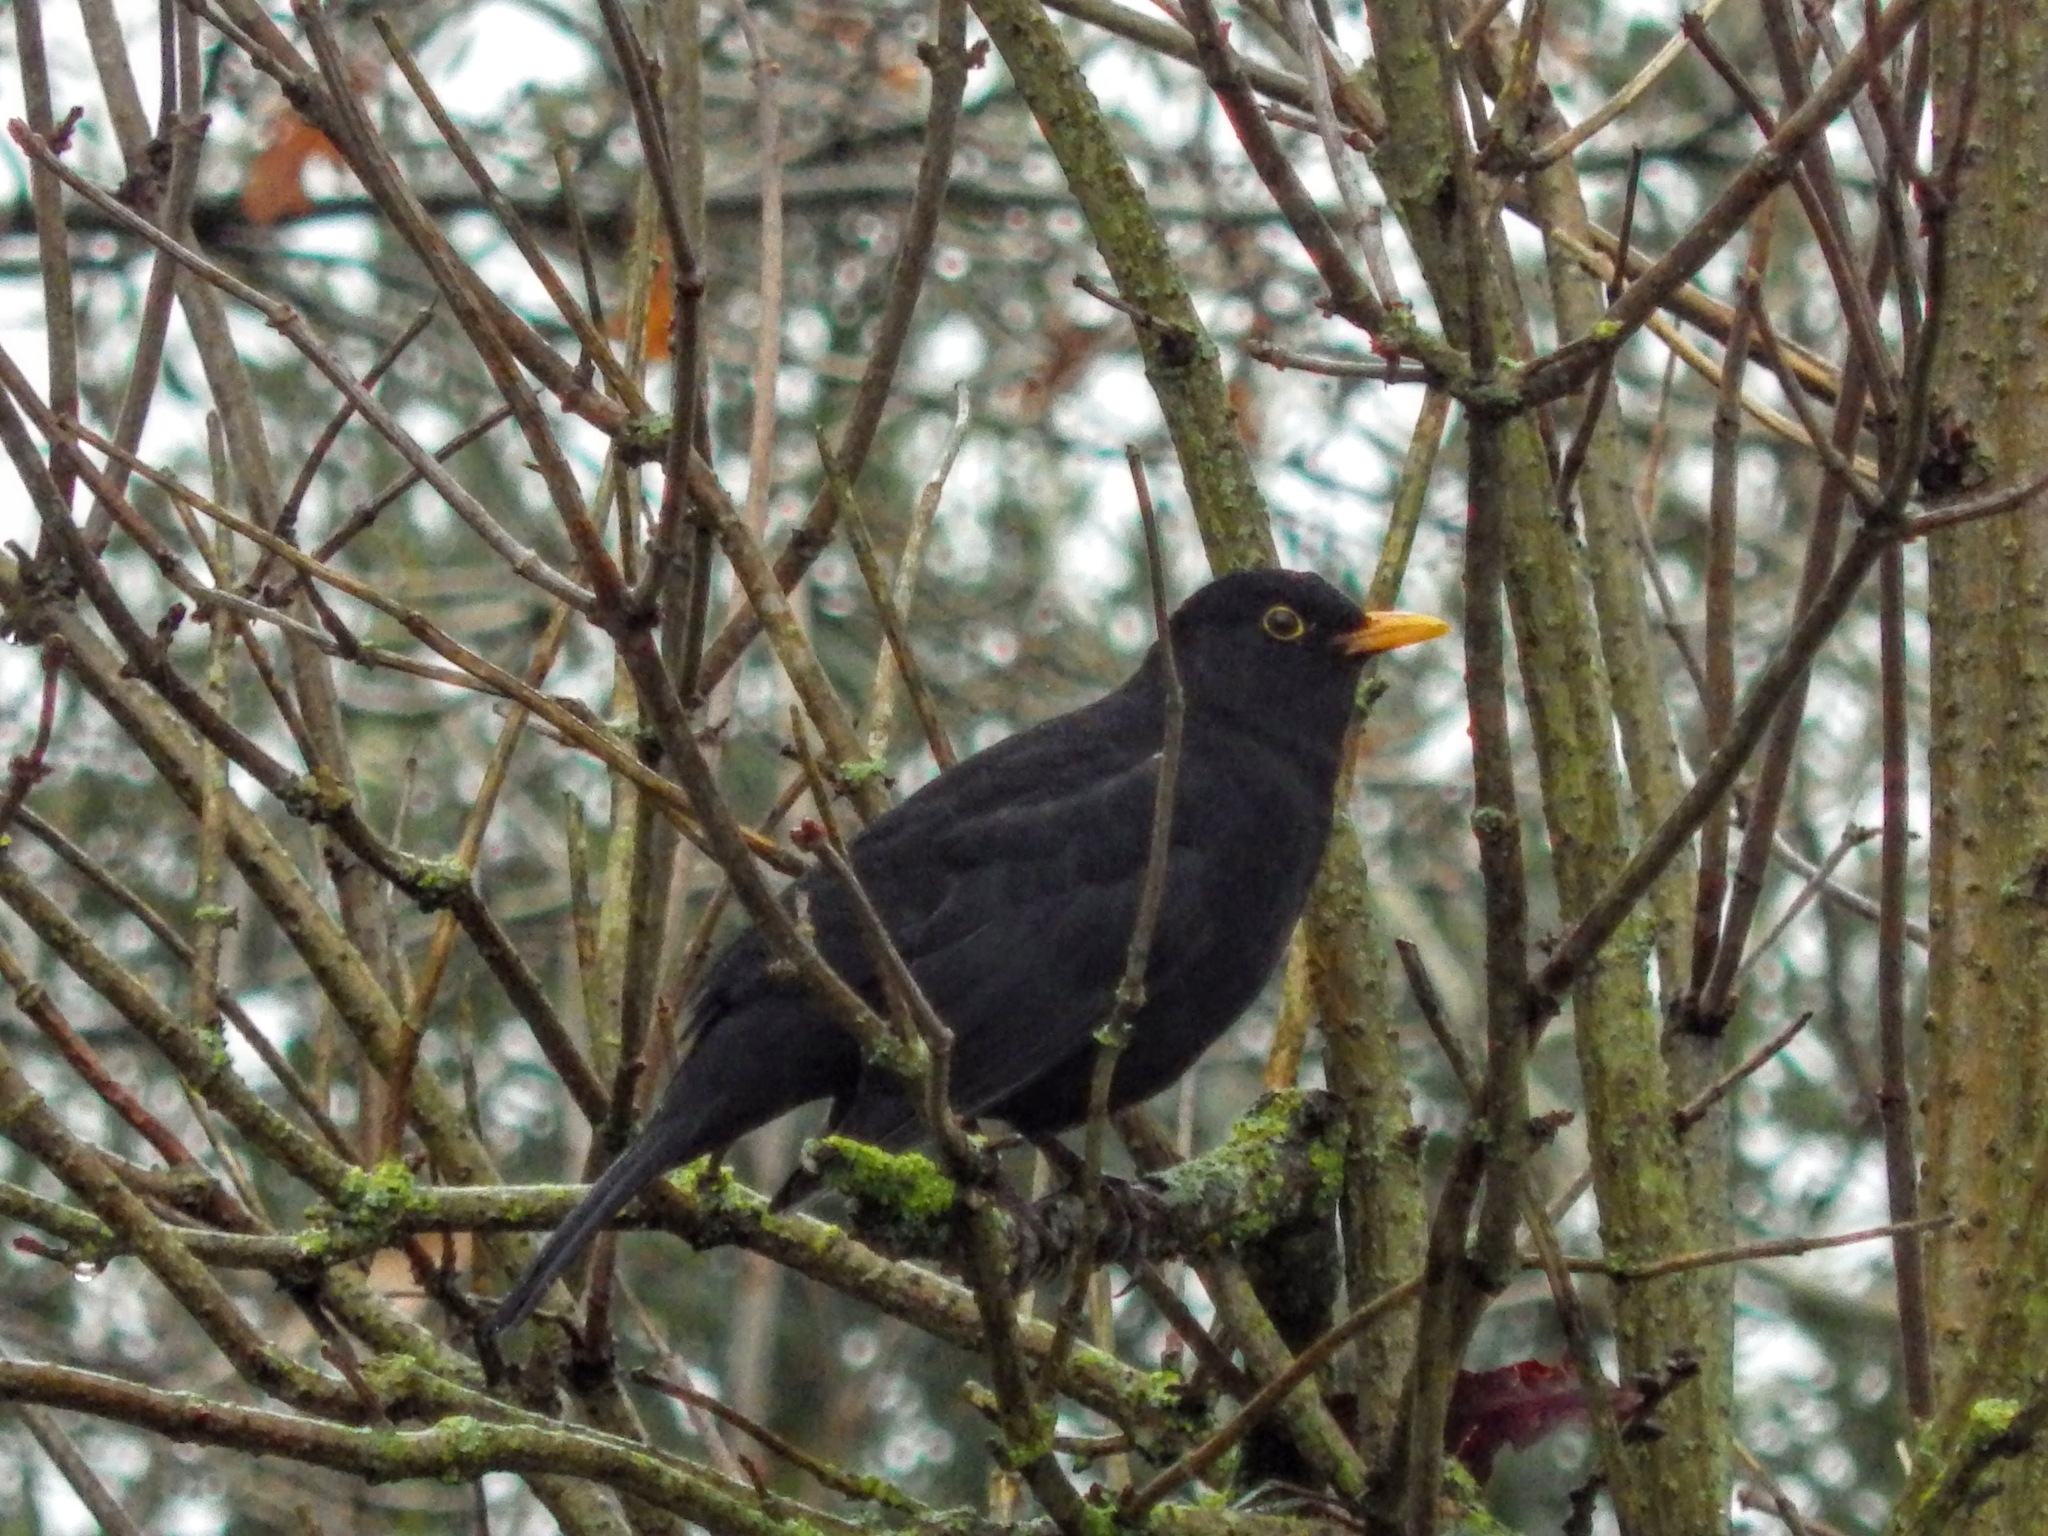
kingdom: Animalia
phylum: Chordata
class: Aves
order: Passeriformes
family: Turdidae
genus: Turdus
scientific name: Turdus merula
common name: Common blackbird
